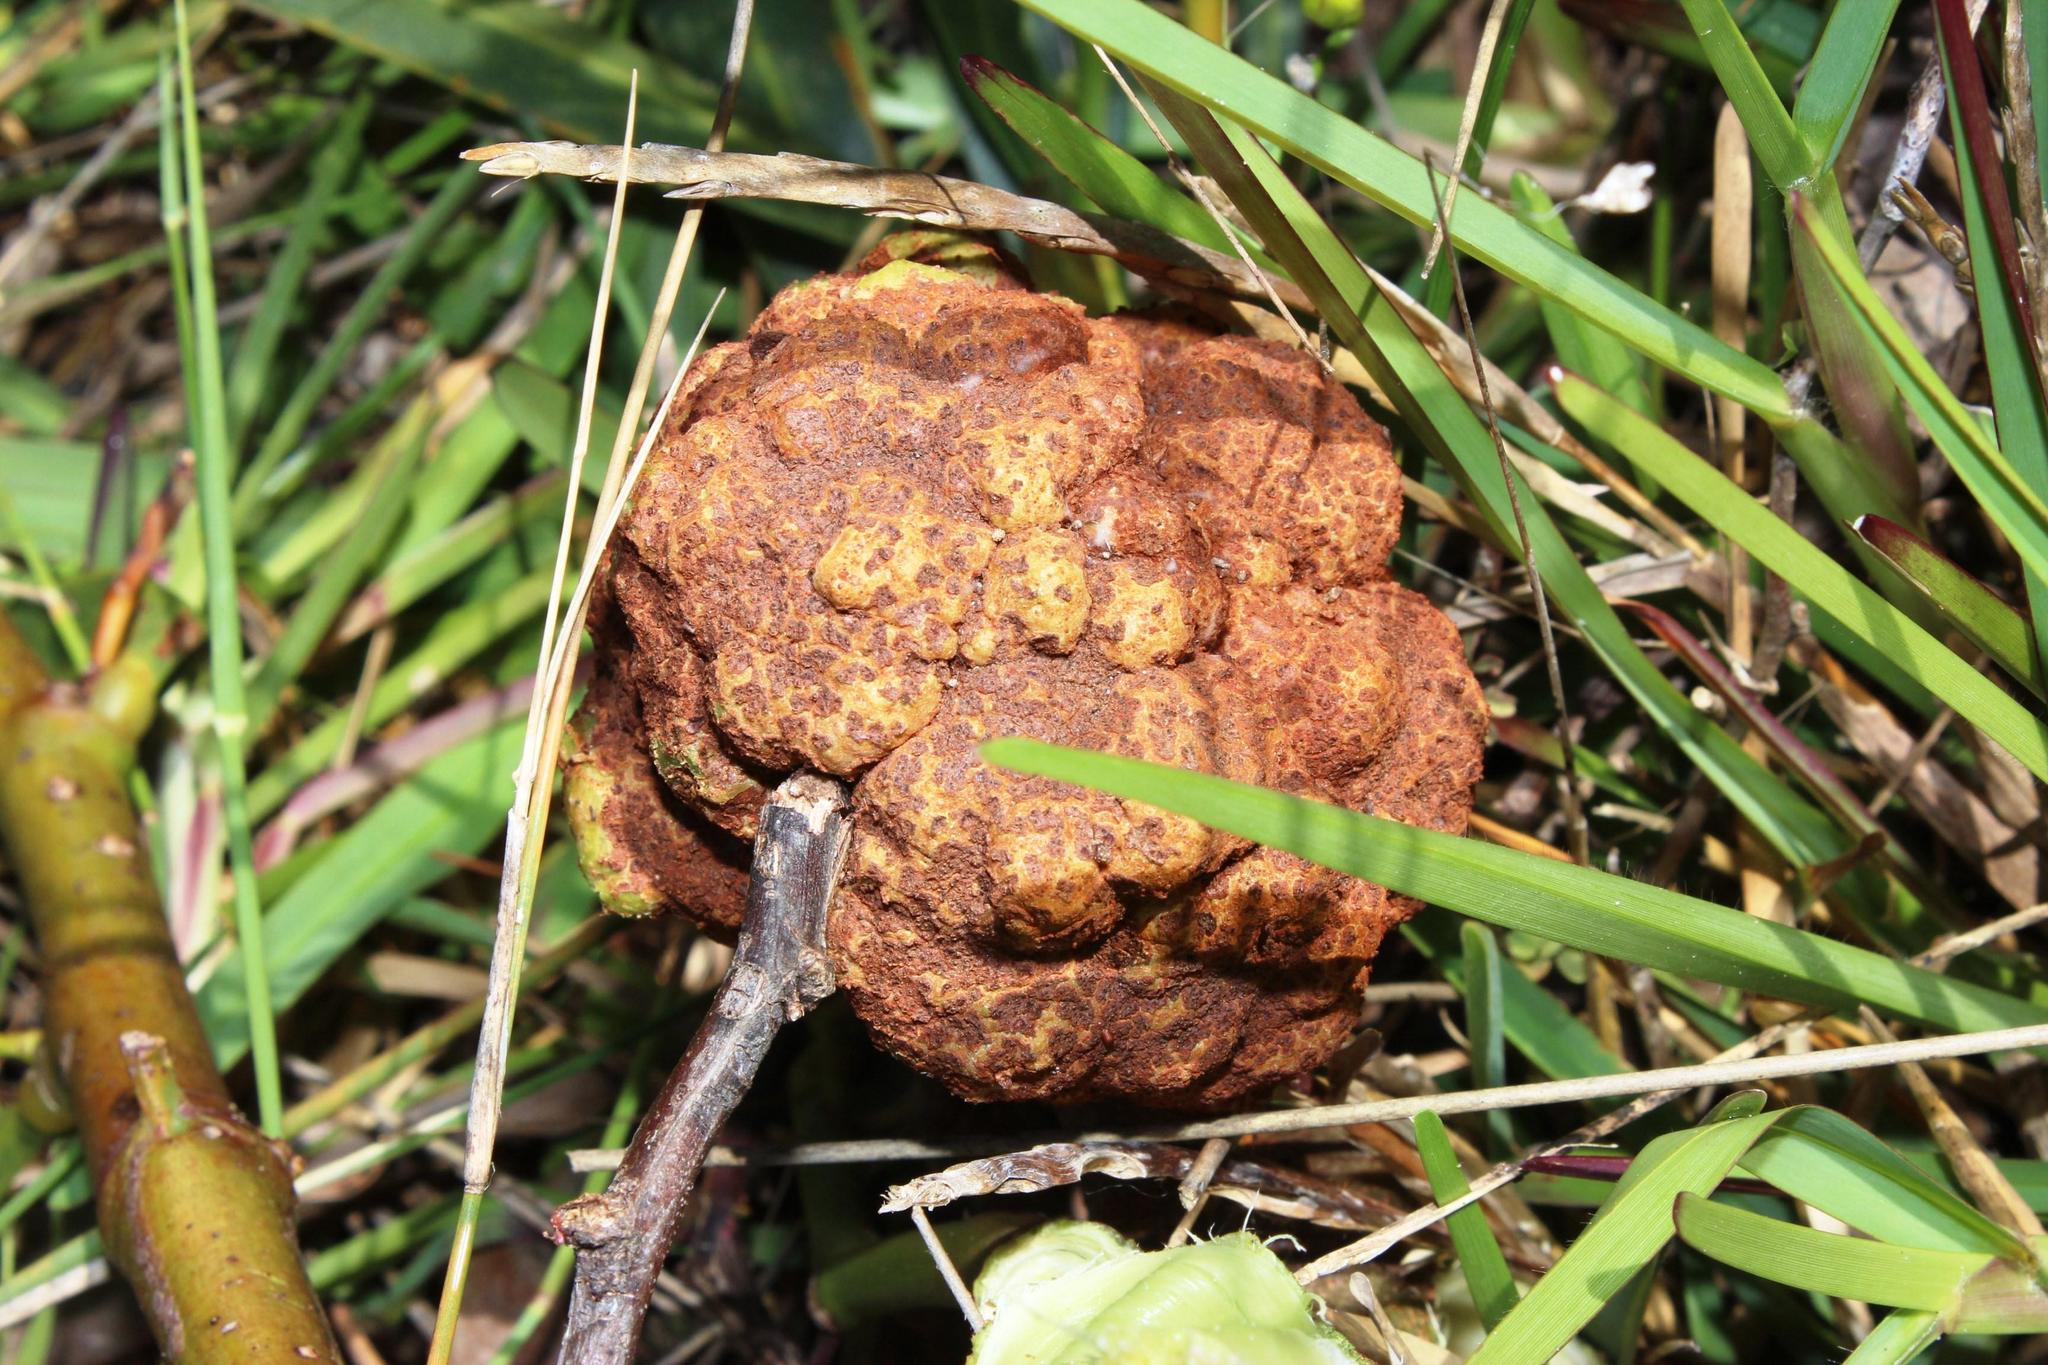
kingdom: Fungi
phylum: Basidiomycota
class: Pucciniomycetes
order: Pucciniales
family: Uromycladiaceae
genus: Uromycladium
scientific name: Uromycladium morrisii
